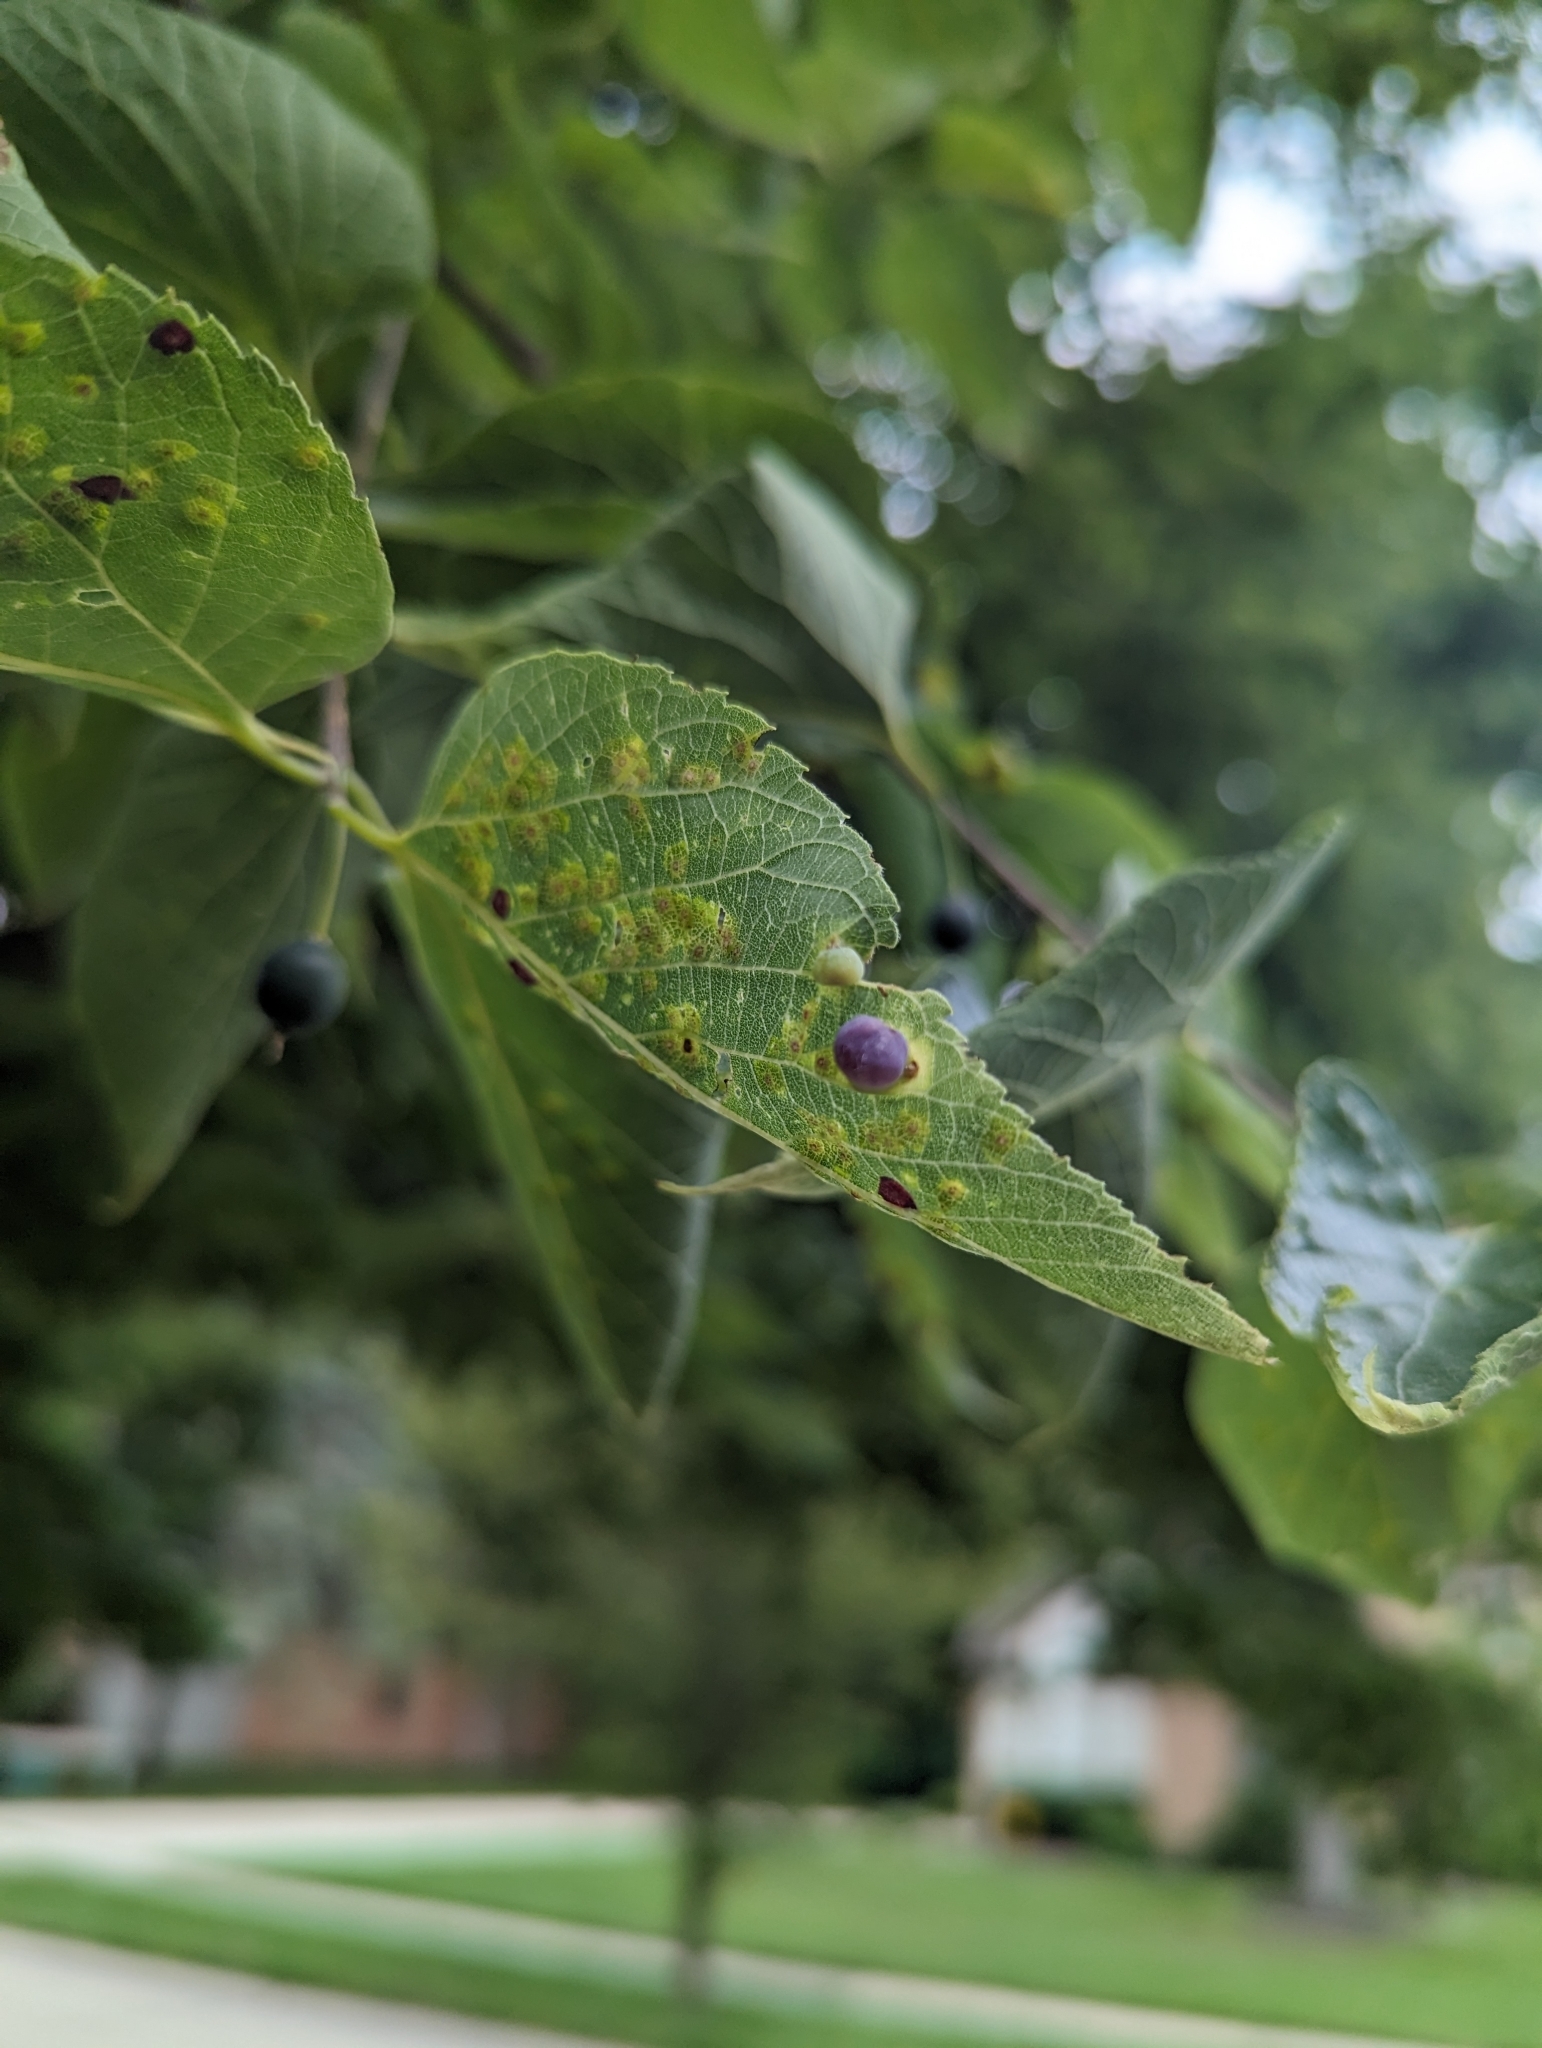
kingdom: Animalia
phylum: Arthropoda
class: Insecta
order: Hemiptera
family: Aphalaridae
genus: Pachypsylla
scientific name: Pachypsylla celtidismamma
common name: Hackberry nipplegall psyllid
